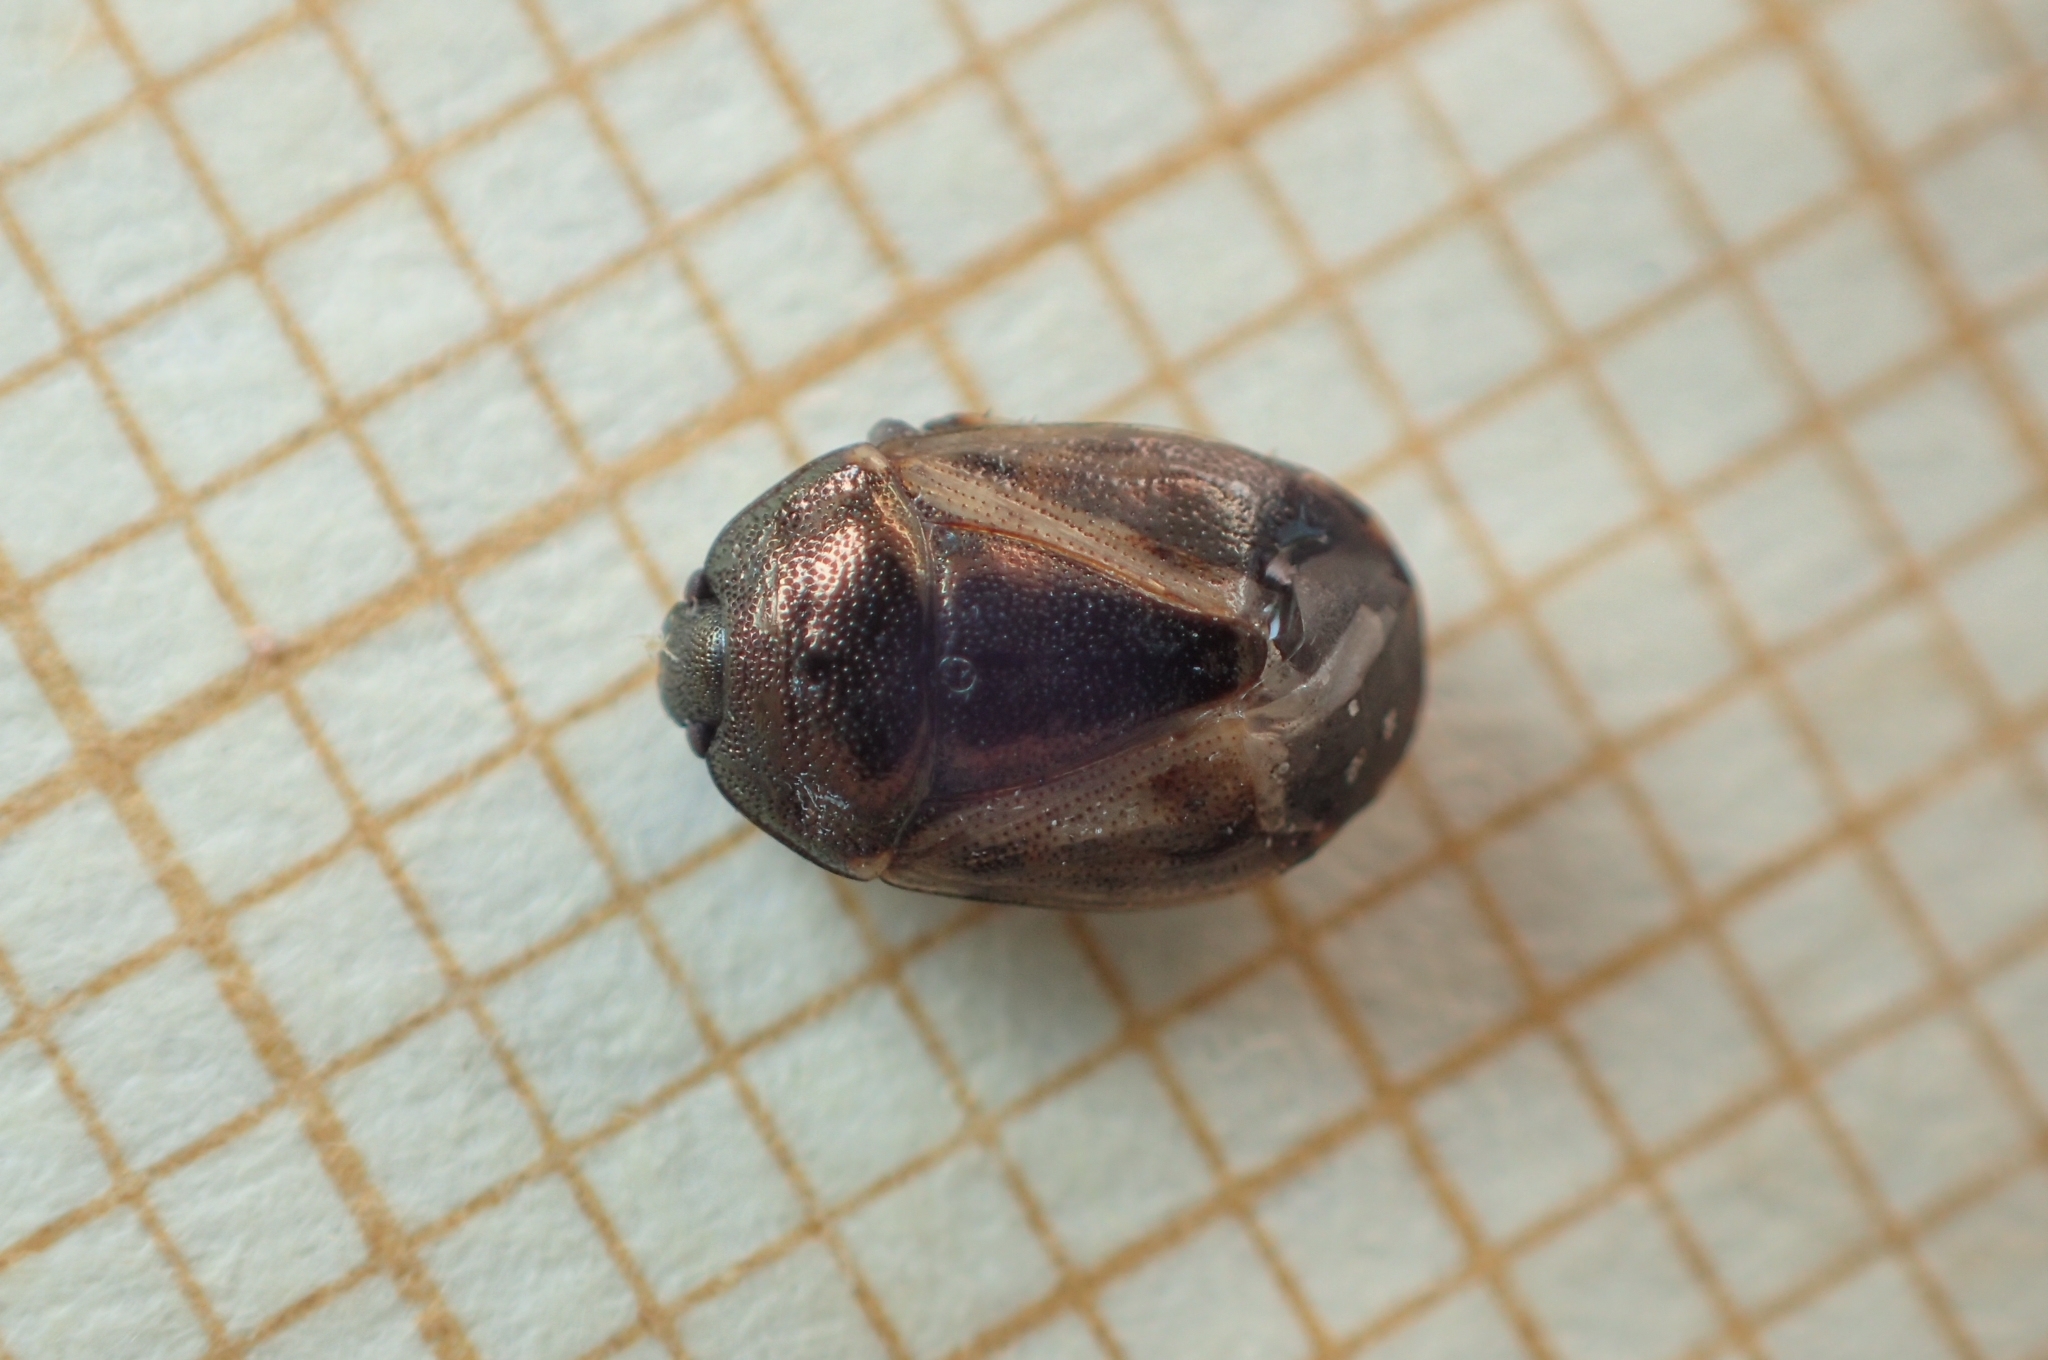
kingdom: Animalia
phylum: Arthropoda
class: Insecta
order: Hemiptera
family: Cydnidae
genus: Crocistethus
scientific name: Crocistethus waltlianus
